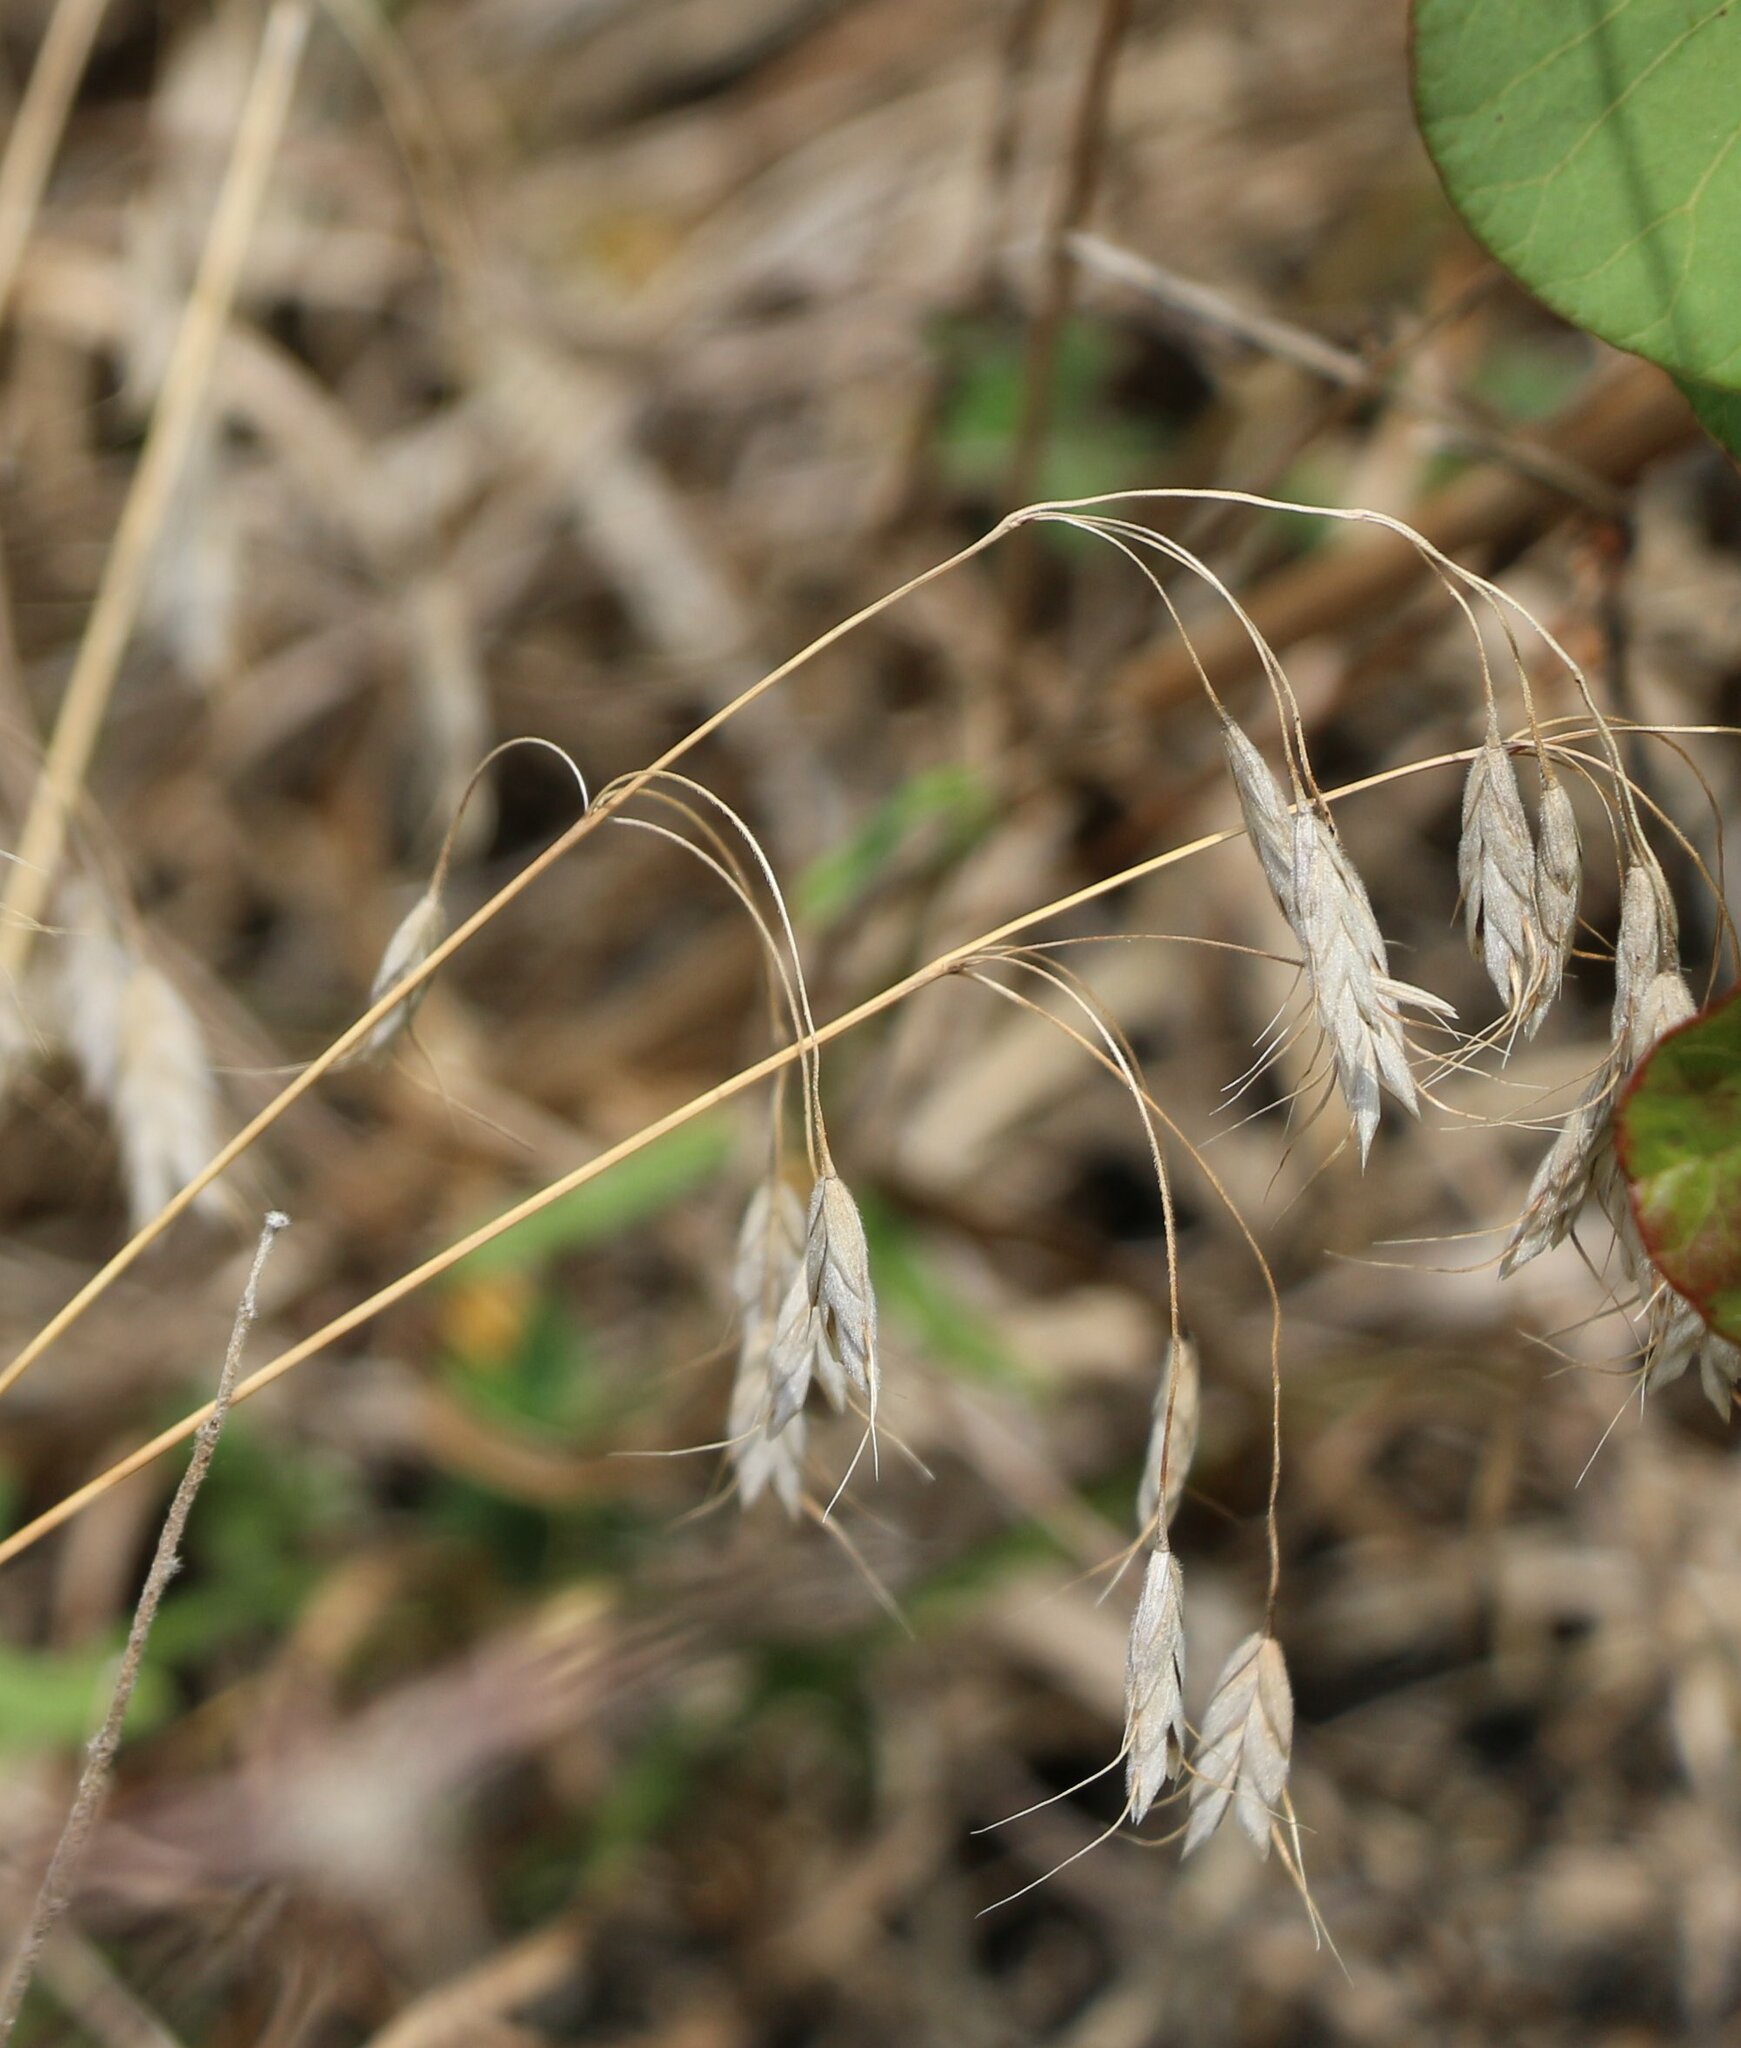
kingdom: Plantae
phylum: Tracheophyta
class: Liliopsida
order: Poales
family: Poaceae
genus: Bromus
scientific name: Bromus squarrosus
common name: Corn brome
